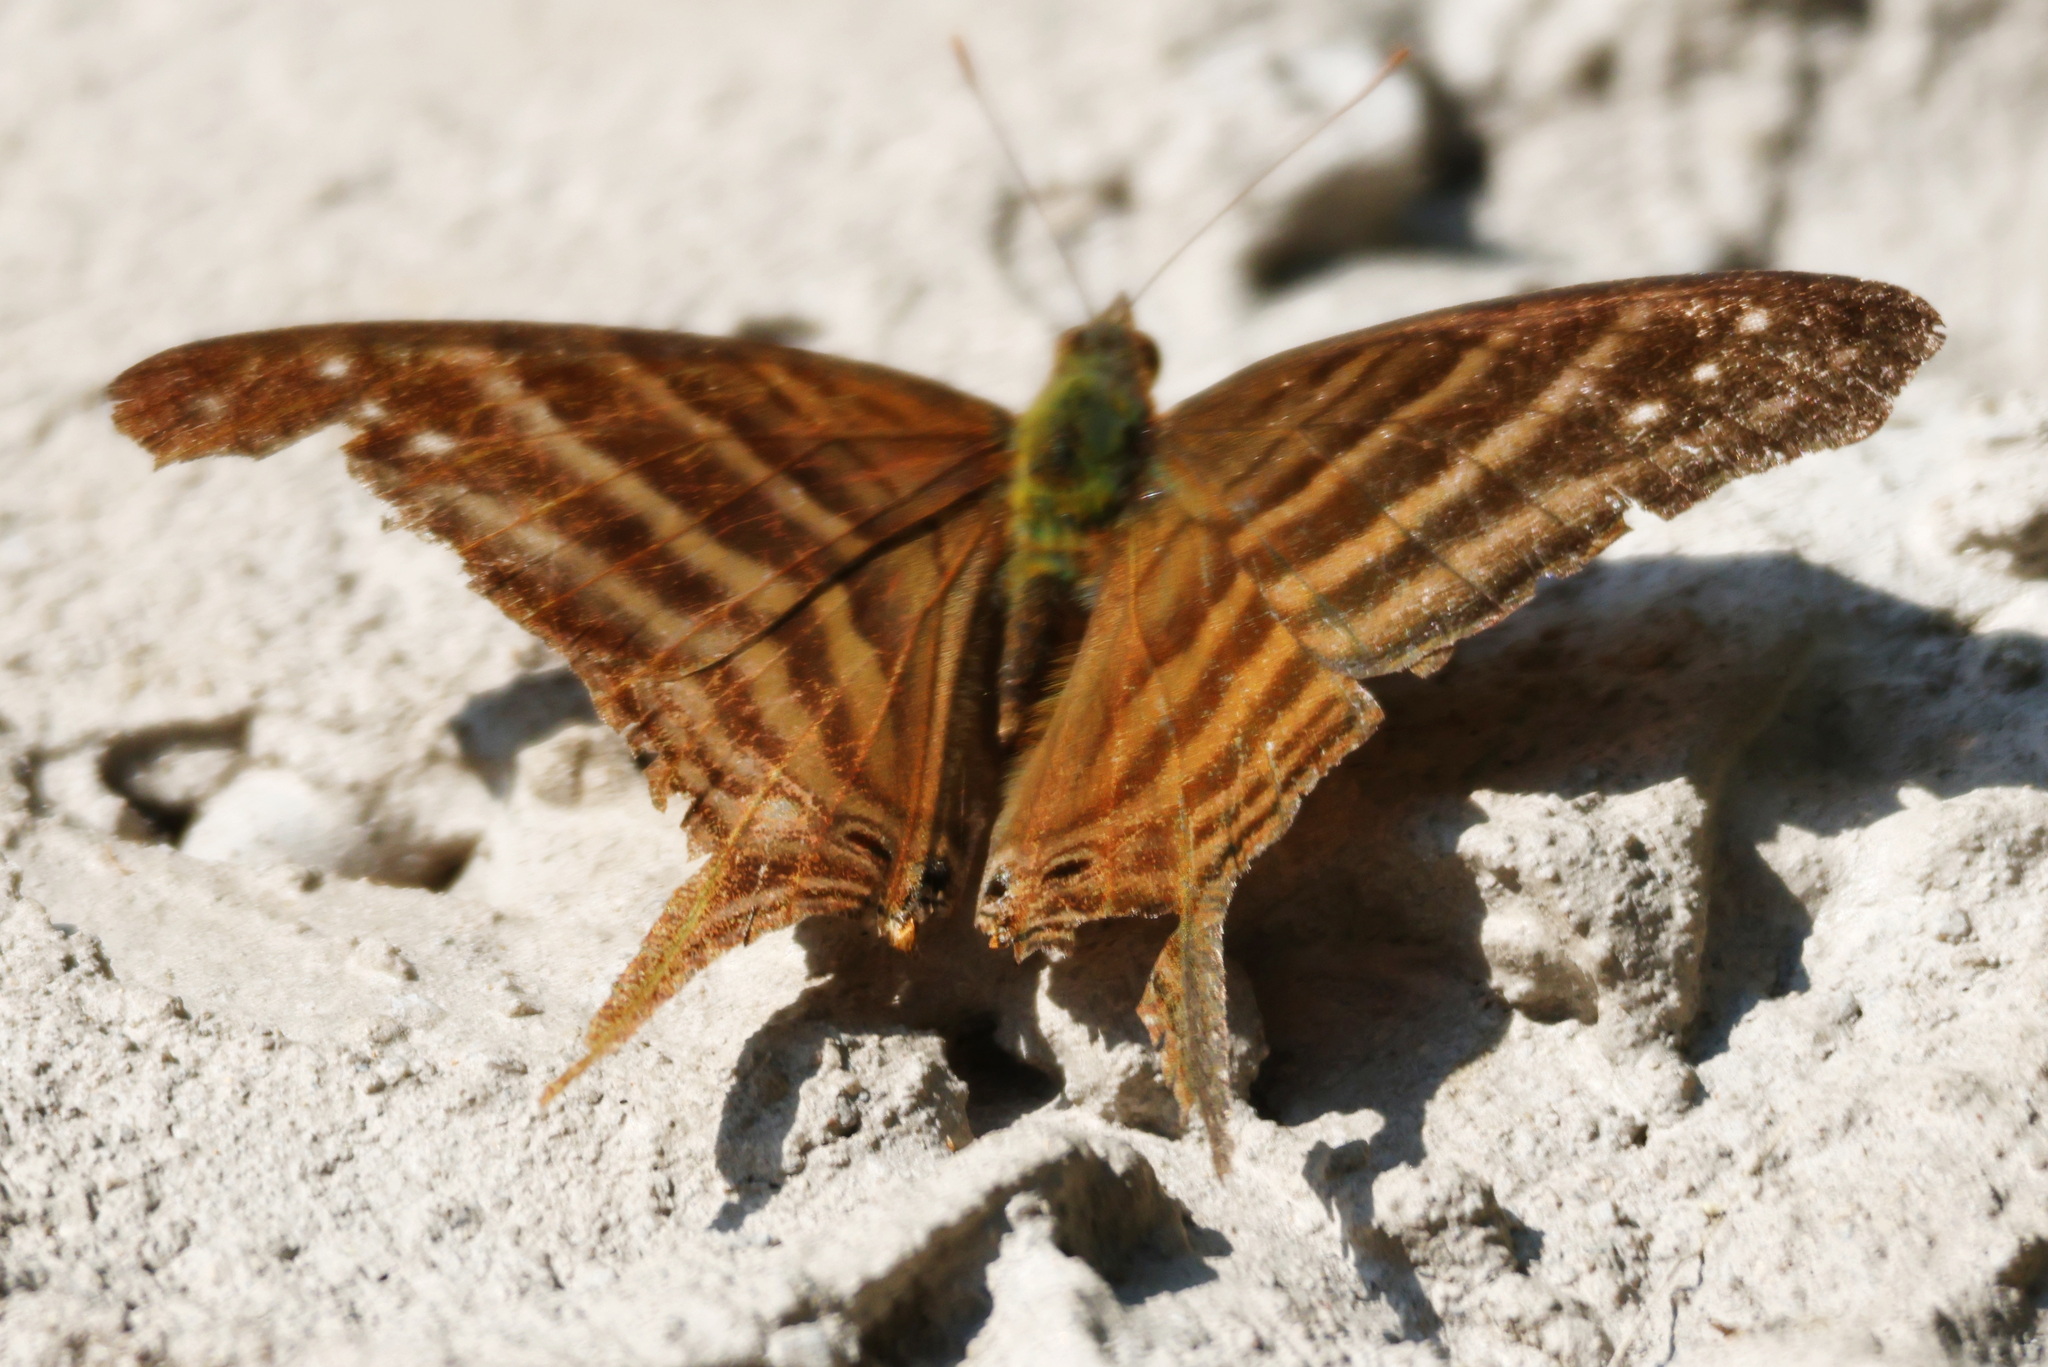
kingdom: Animalia
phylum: Arthropoda
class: Insecta
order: Lepidoptera
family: Nymphalidae
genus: Marpesia
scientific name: Marpesia chiron
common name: Many-banded daggerwing
